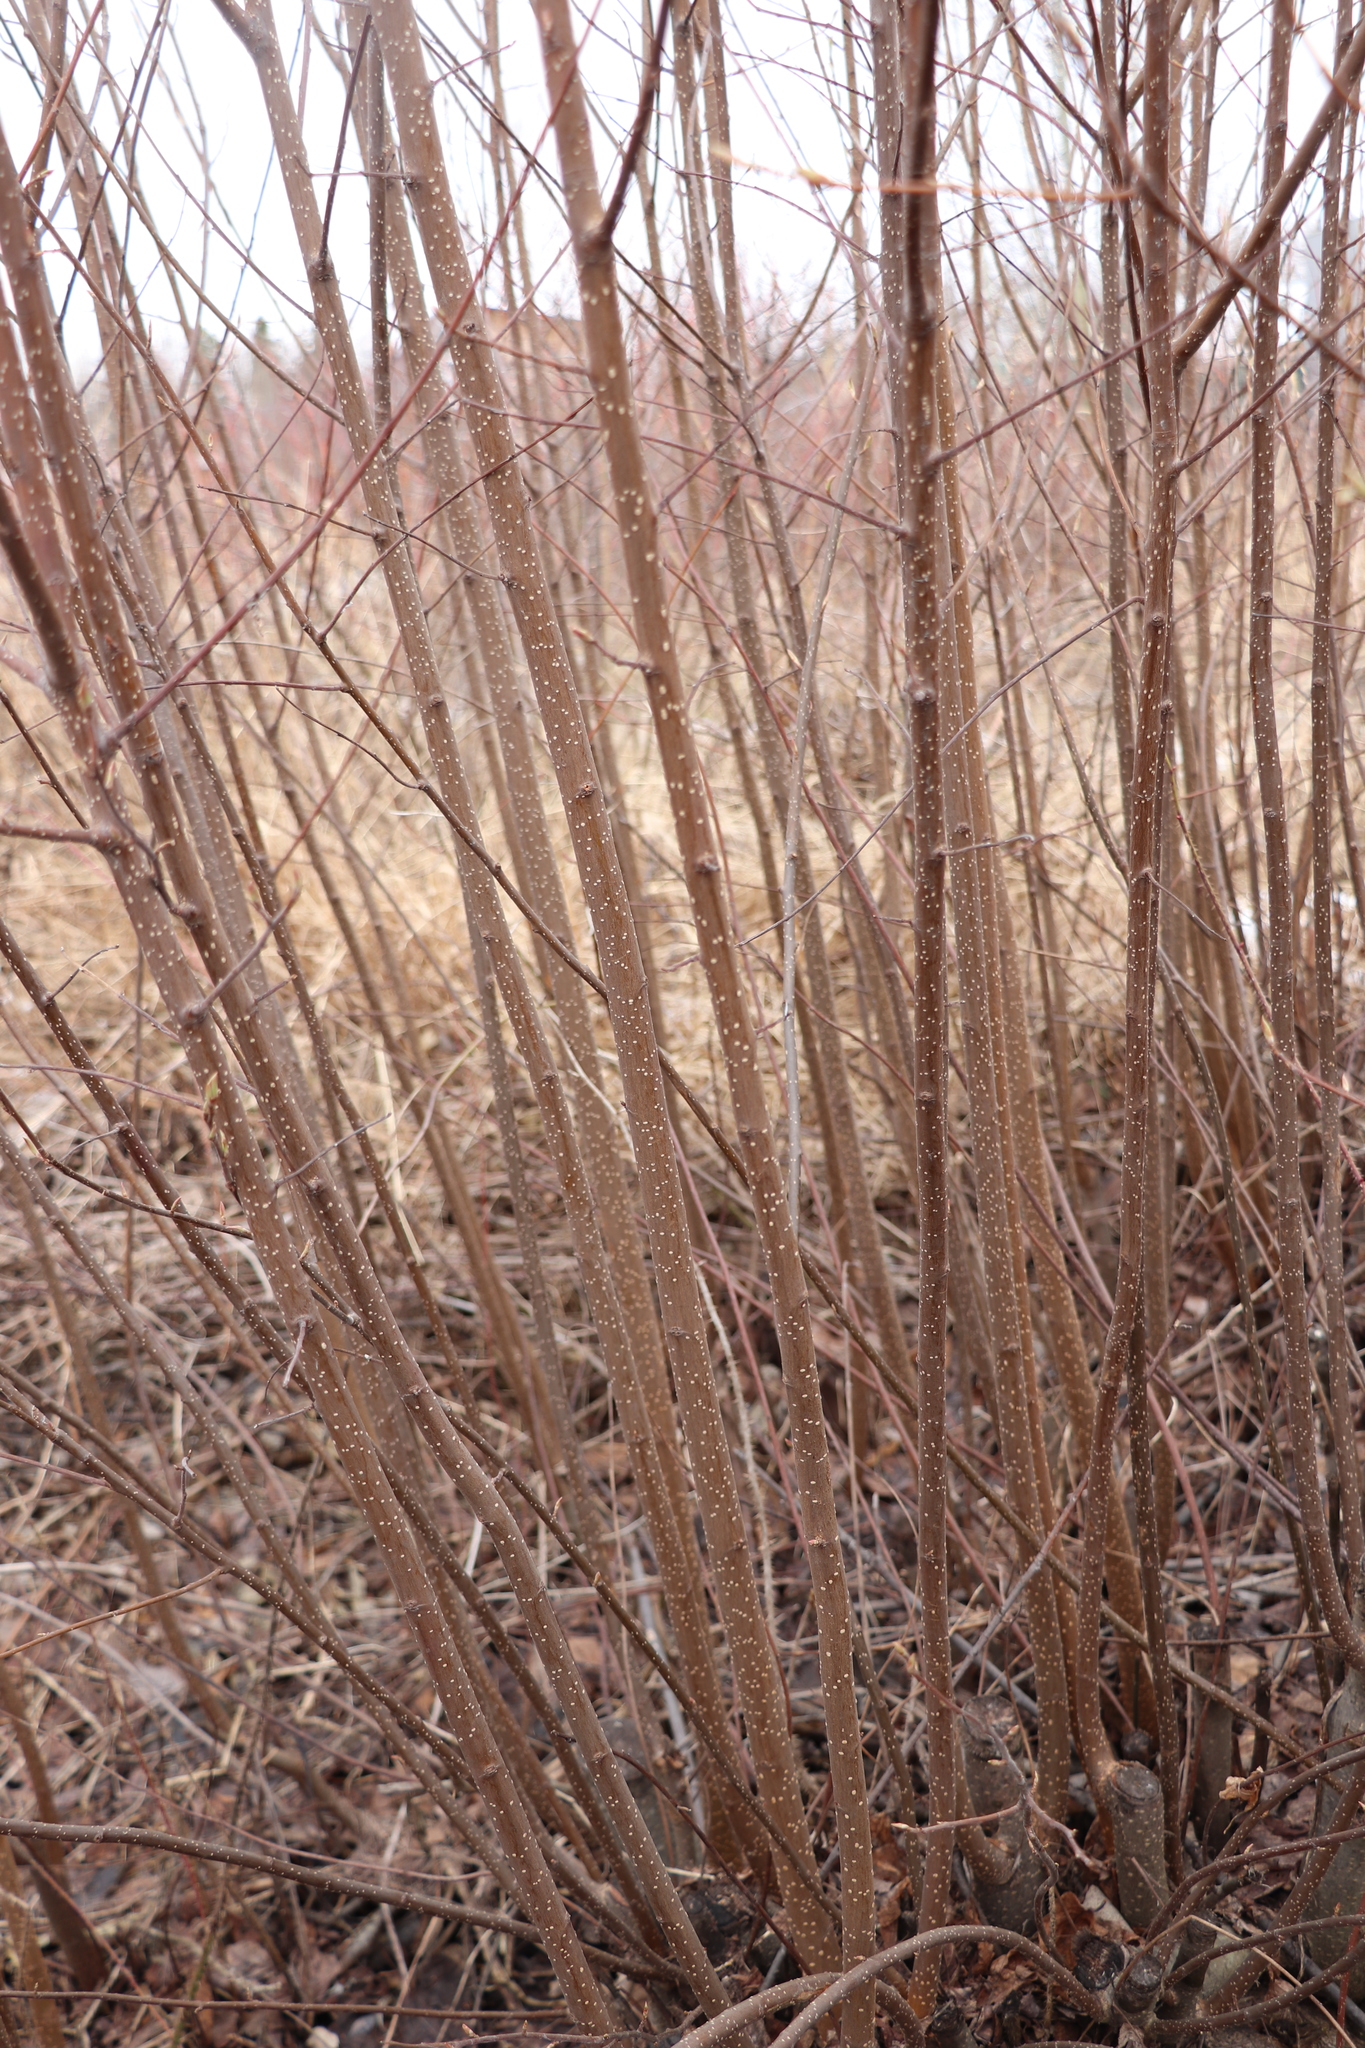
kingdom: Plantae
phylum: Tracheophyta
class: Magnoliopsida
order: Rosales
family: Rosaceae
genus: Prunus
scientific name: Prunus padus
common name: Bird cherry
